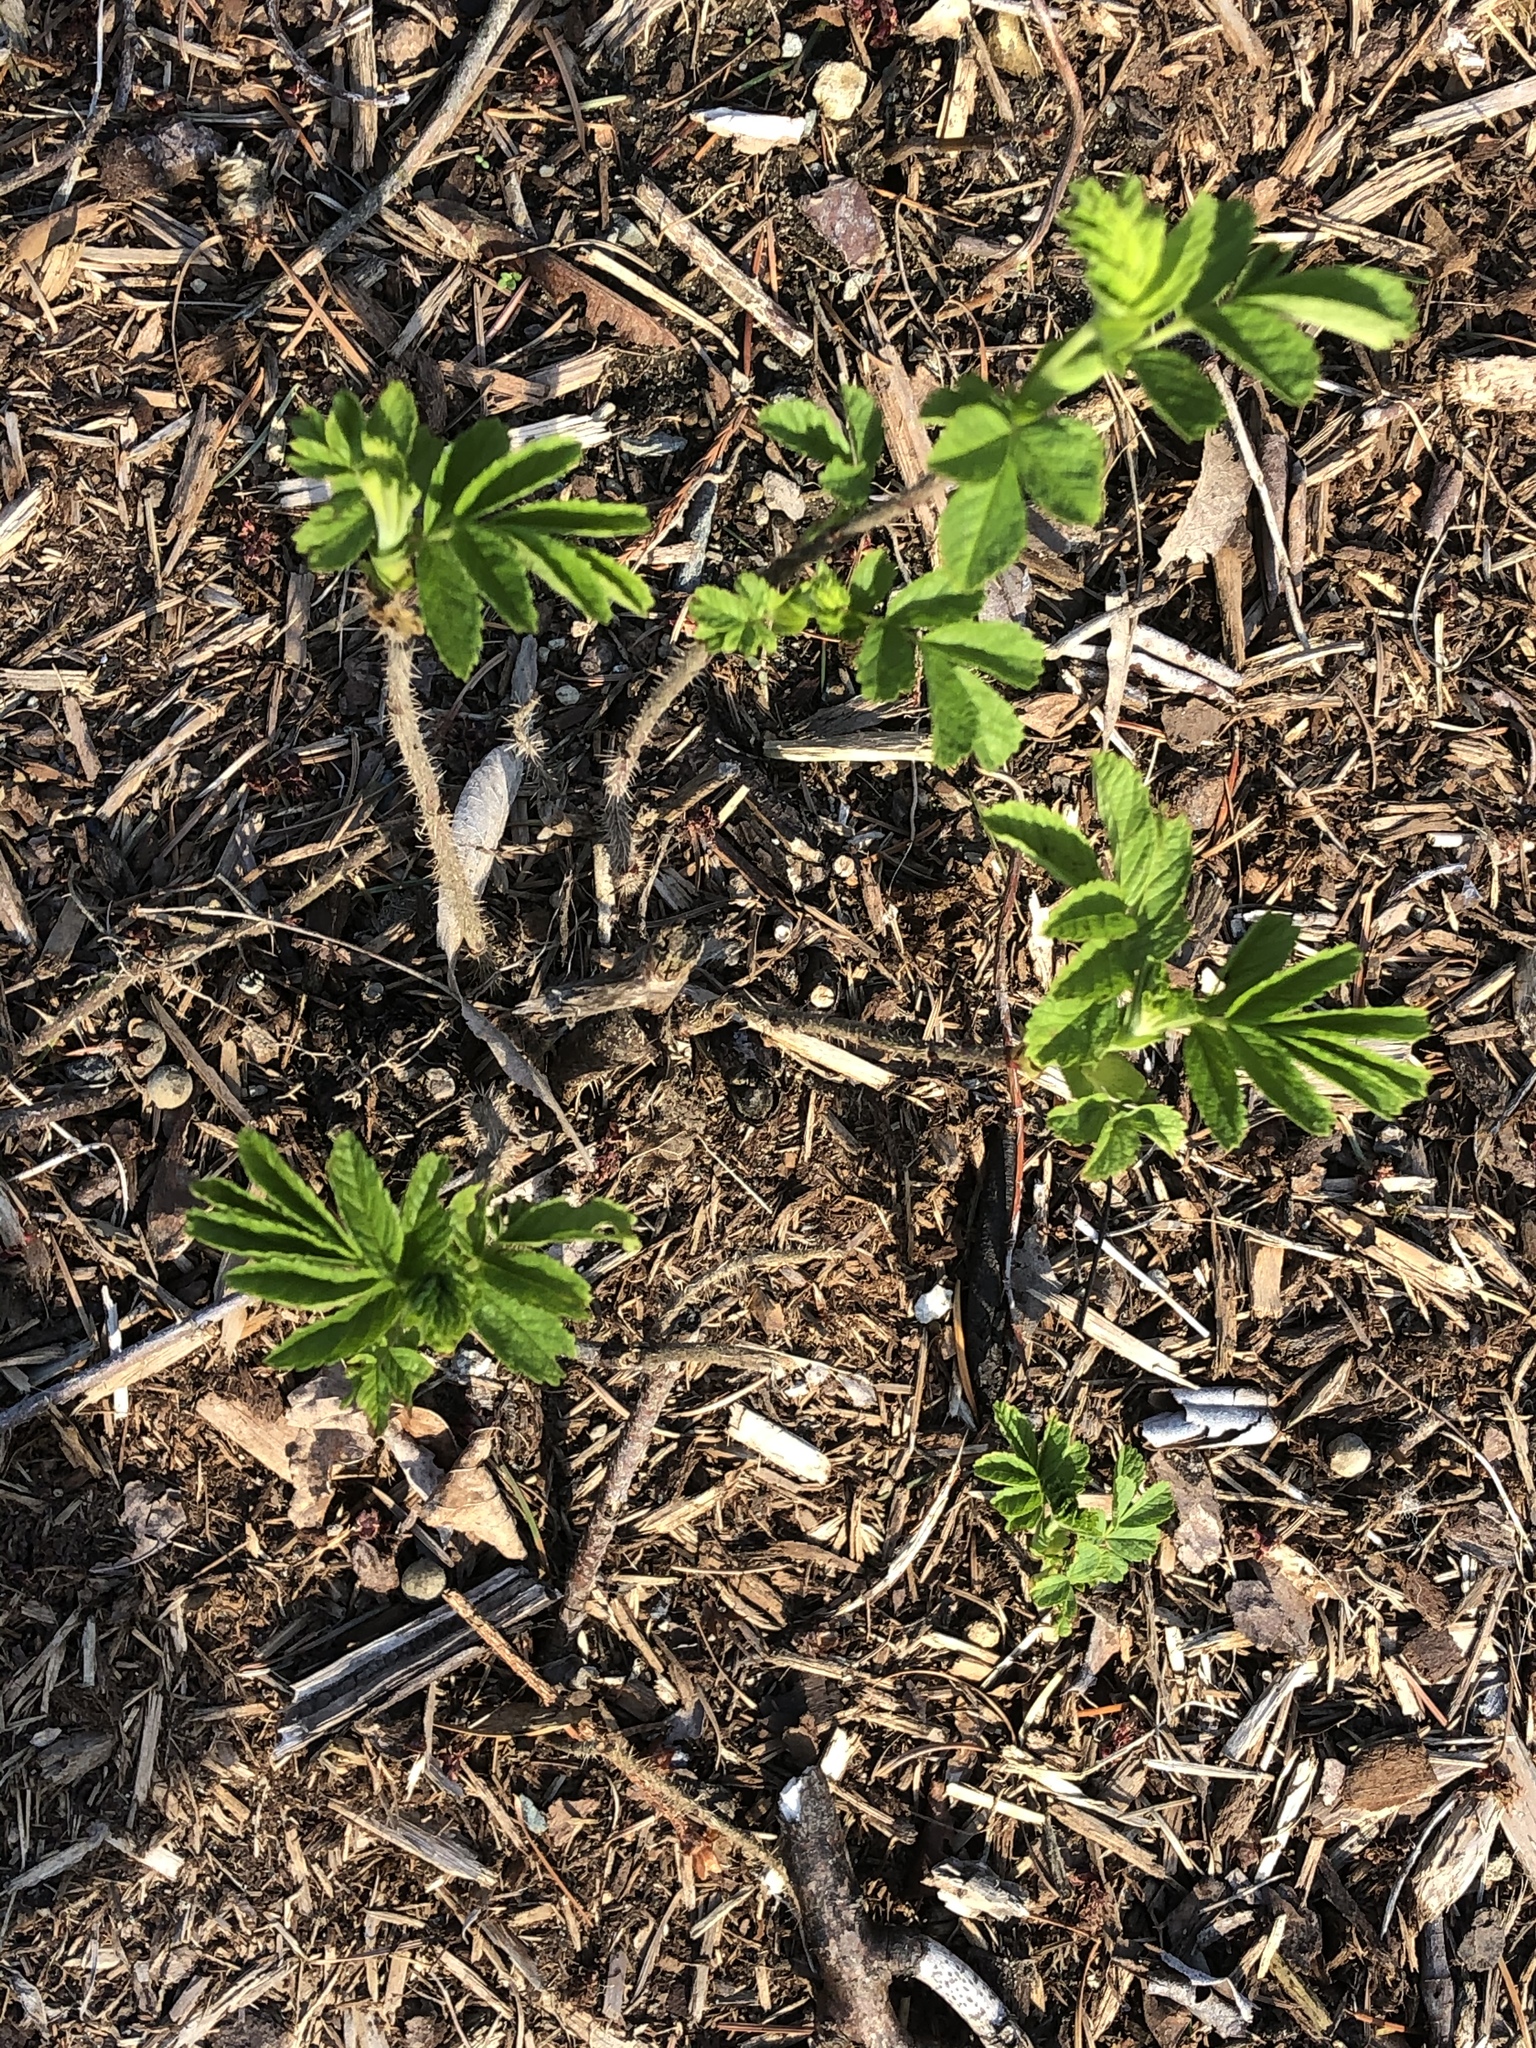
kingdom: Plantae
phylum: Tracheophyta
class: Magnoliopsida
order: Rosales
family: Rosaceae
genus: Rosa
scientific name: Rosa rugosa
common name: Japanese rose
